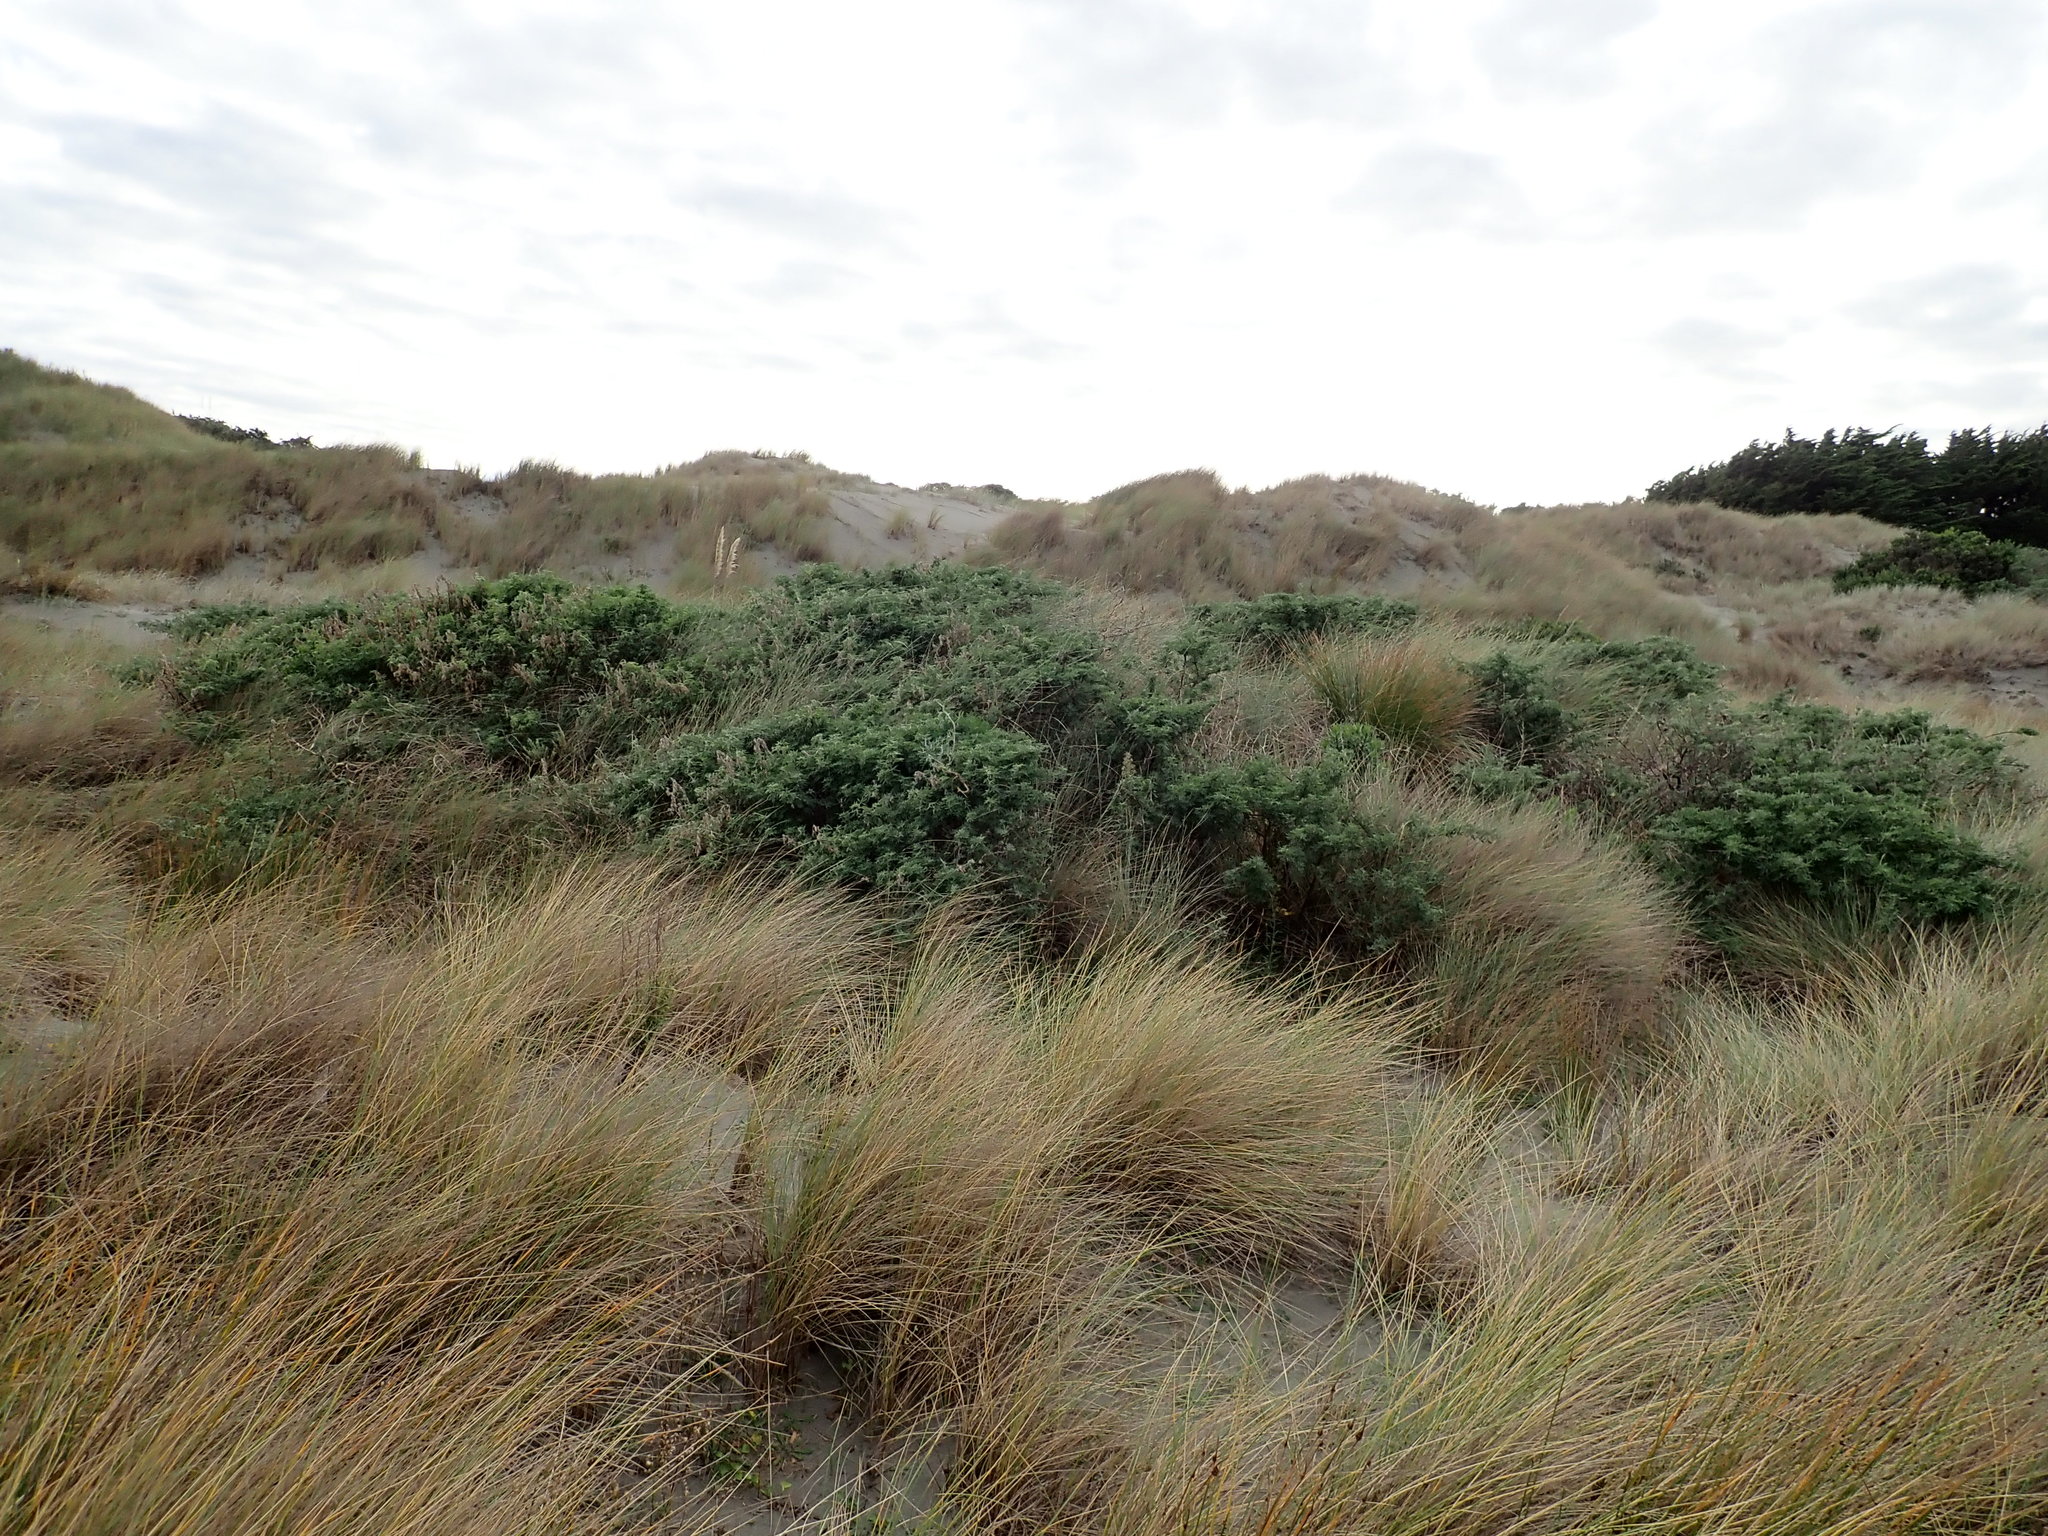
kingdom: Plantae
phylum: Tracheophyta
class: Magnoliopsida
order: Fabales
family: Fabaceae
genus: Lupinus
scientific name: Lupinus arboreus
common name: Yellow bush lupine
